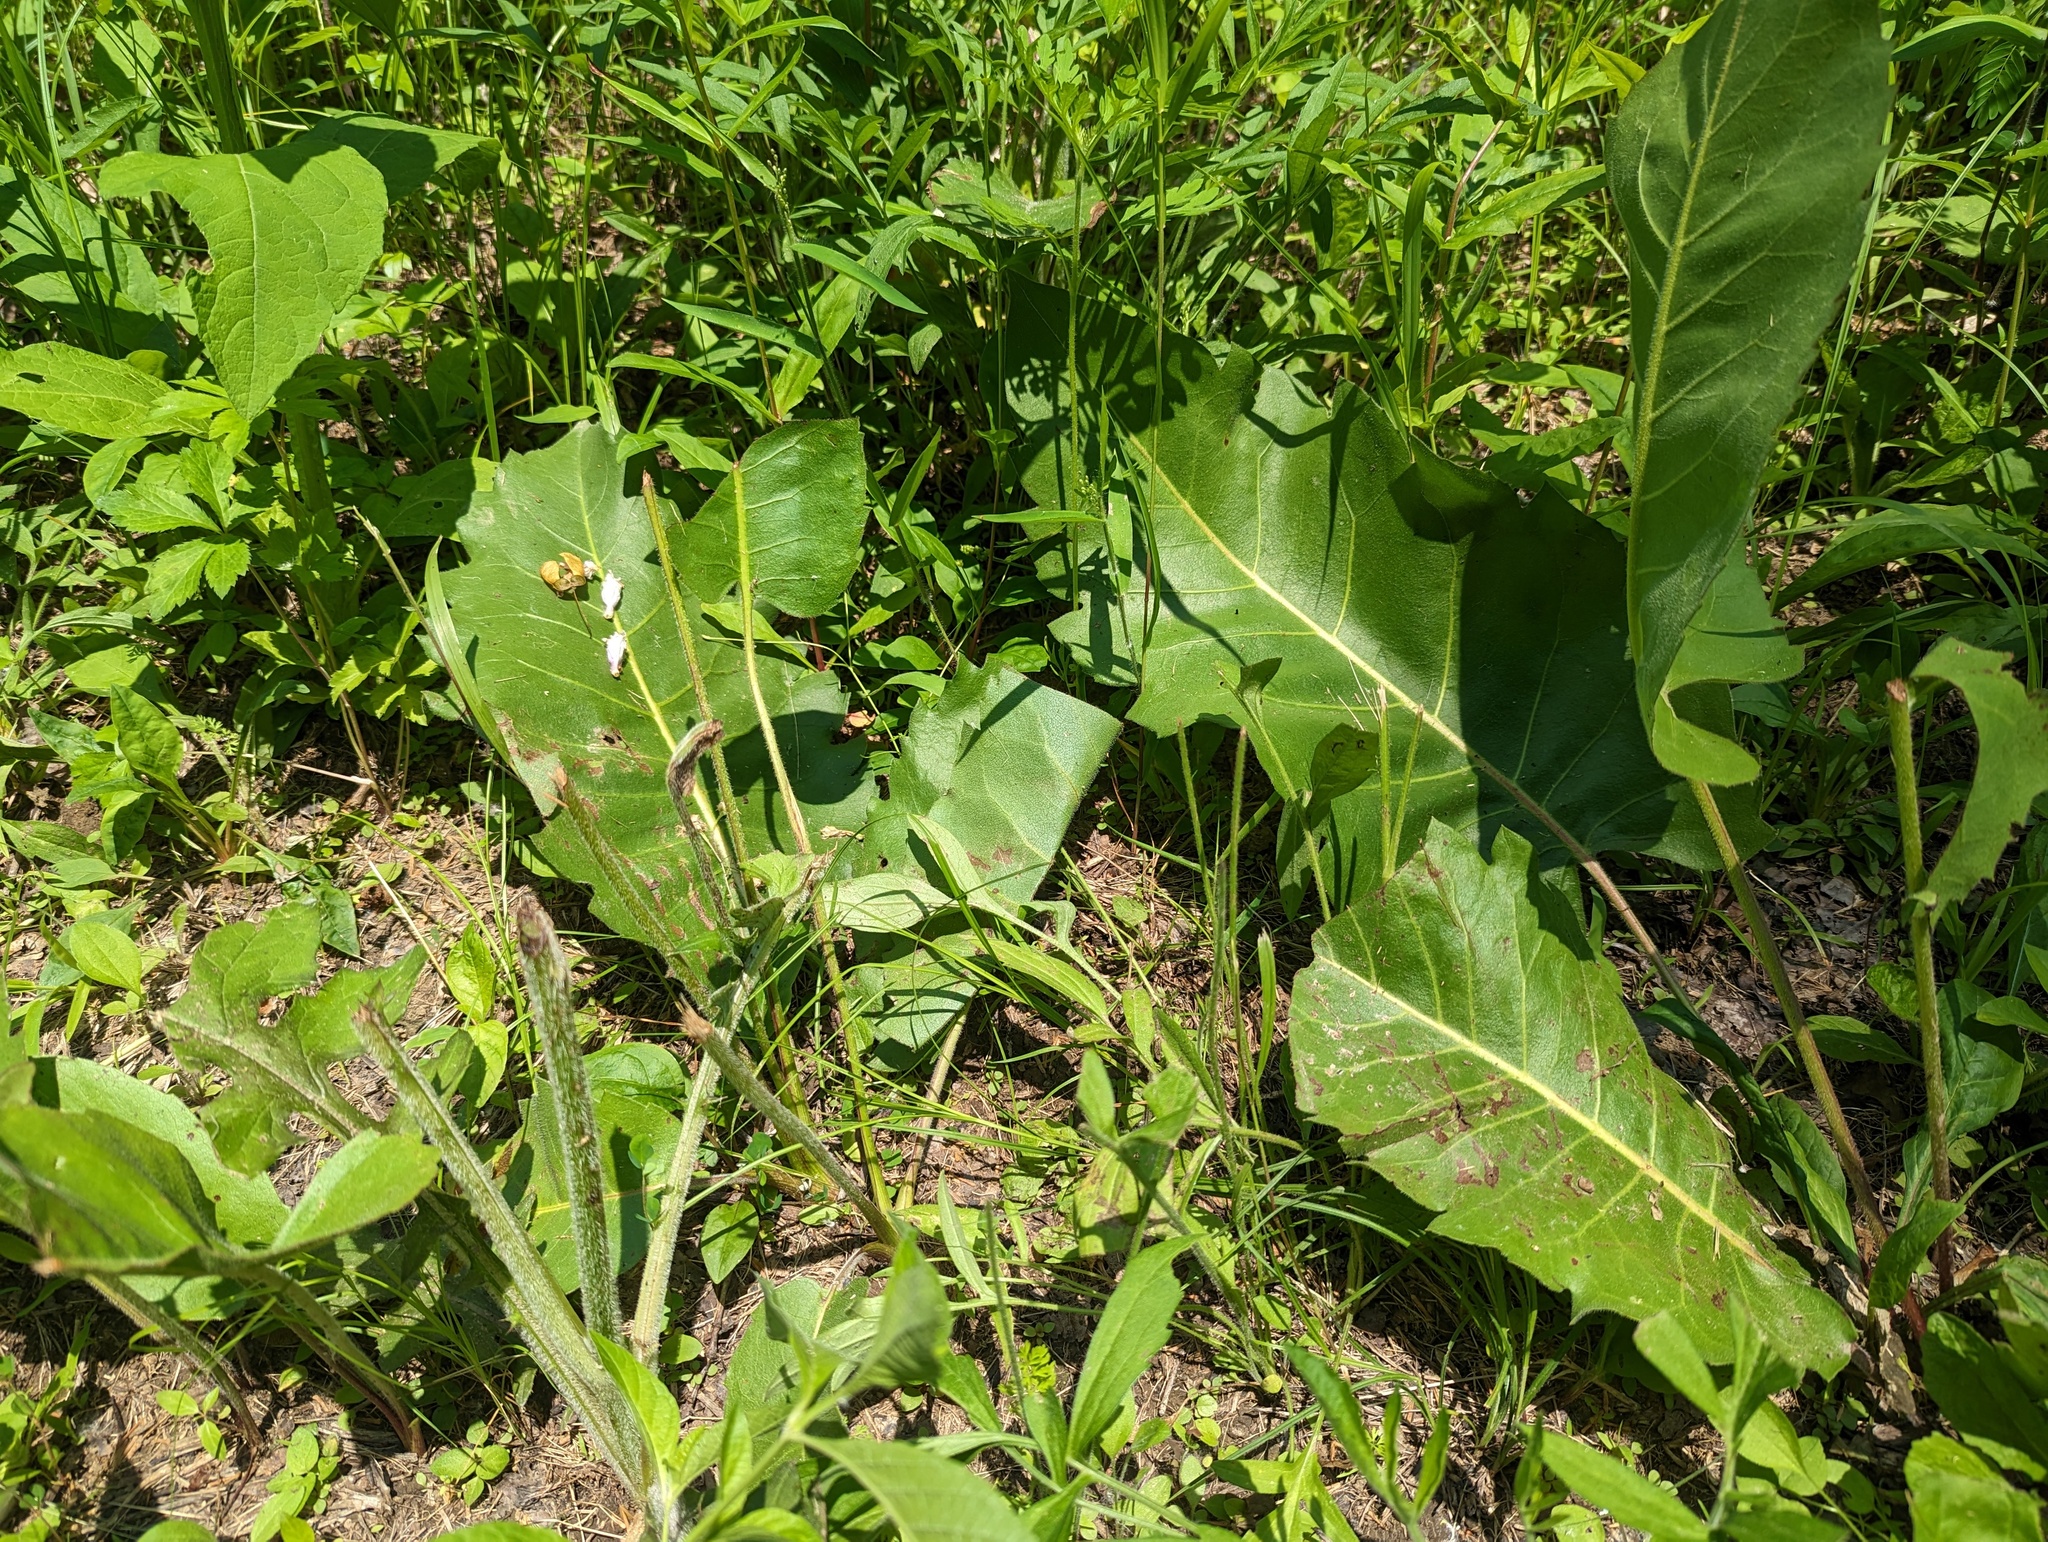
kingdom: Plantae
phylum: Tracheophyta
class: Magnoliopsida
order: Asterales
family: Asteraceae
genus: Silphium
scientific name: Silphium terebinthinaceum
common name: Basal-leaf rosinweed
